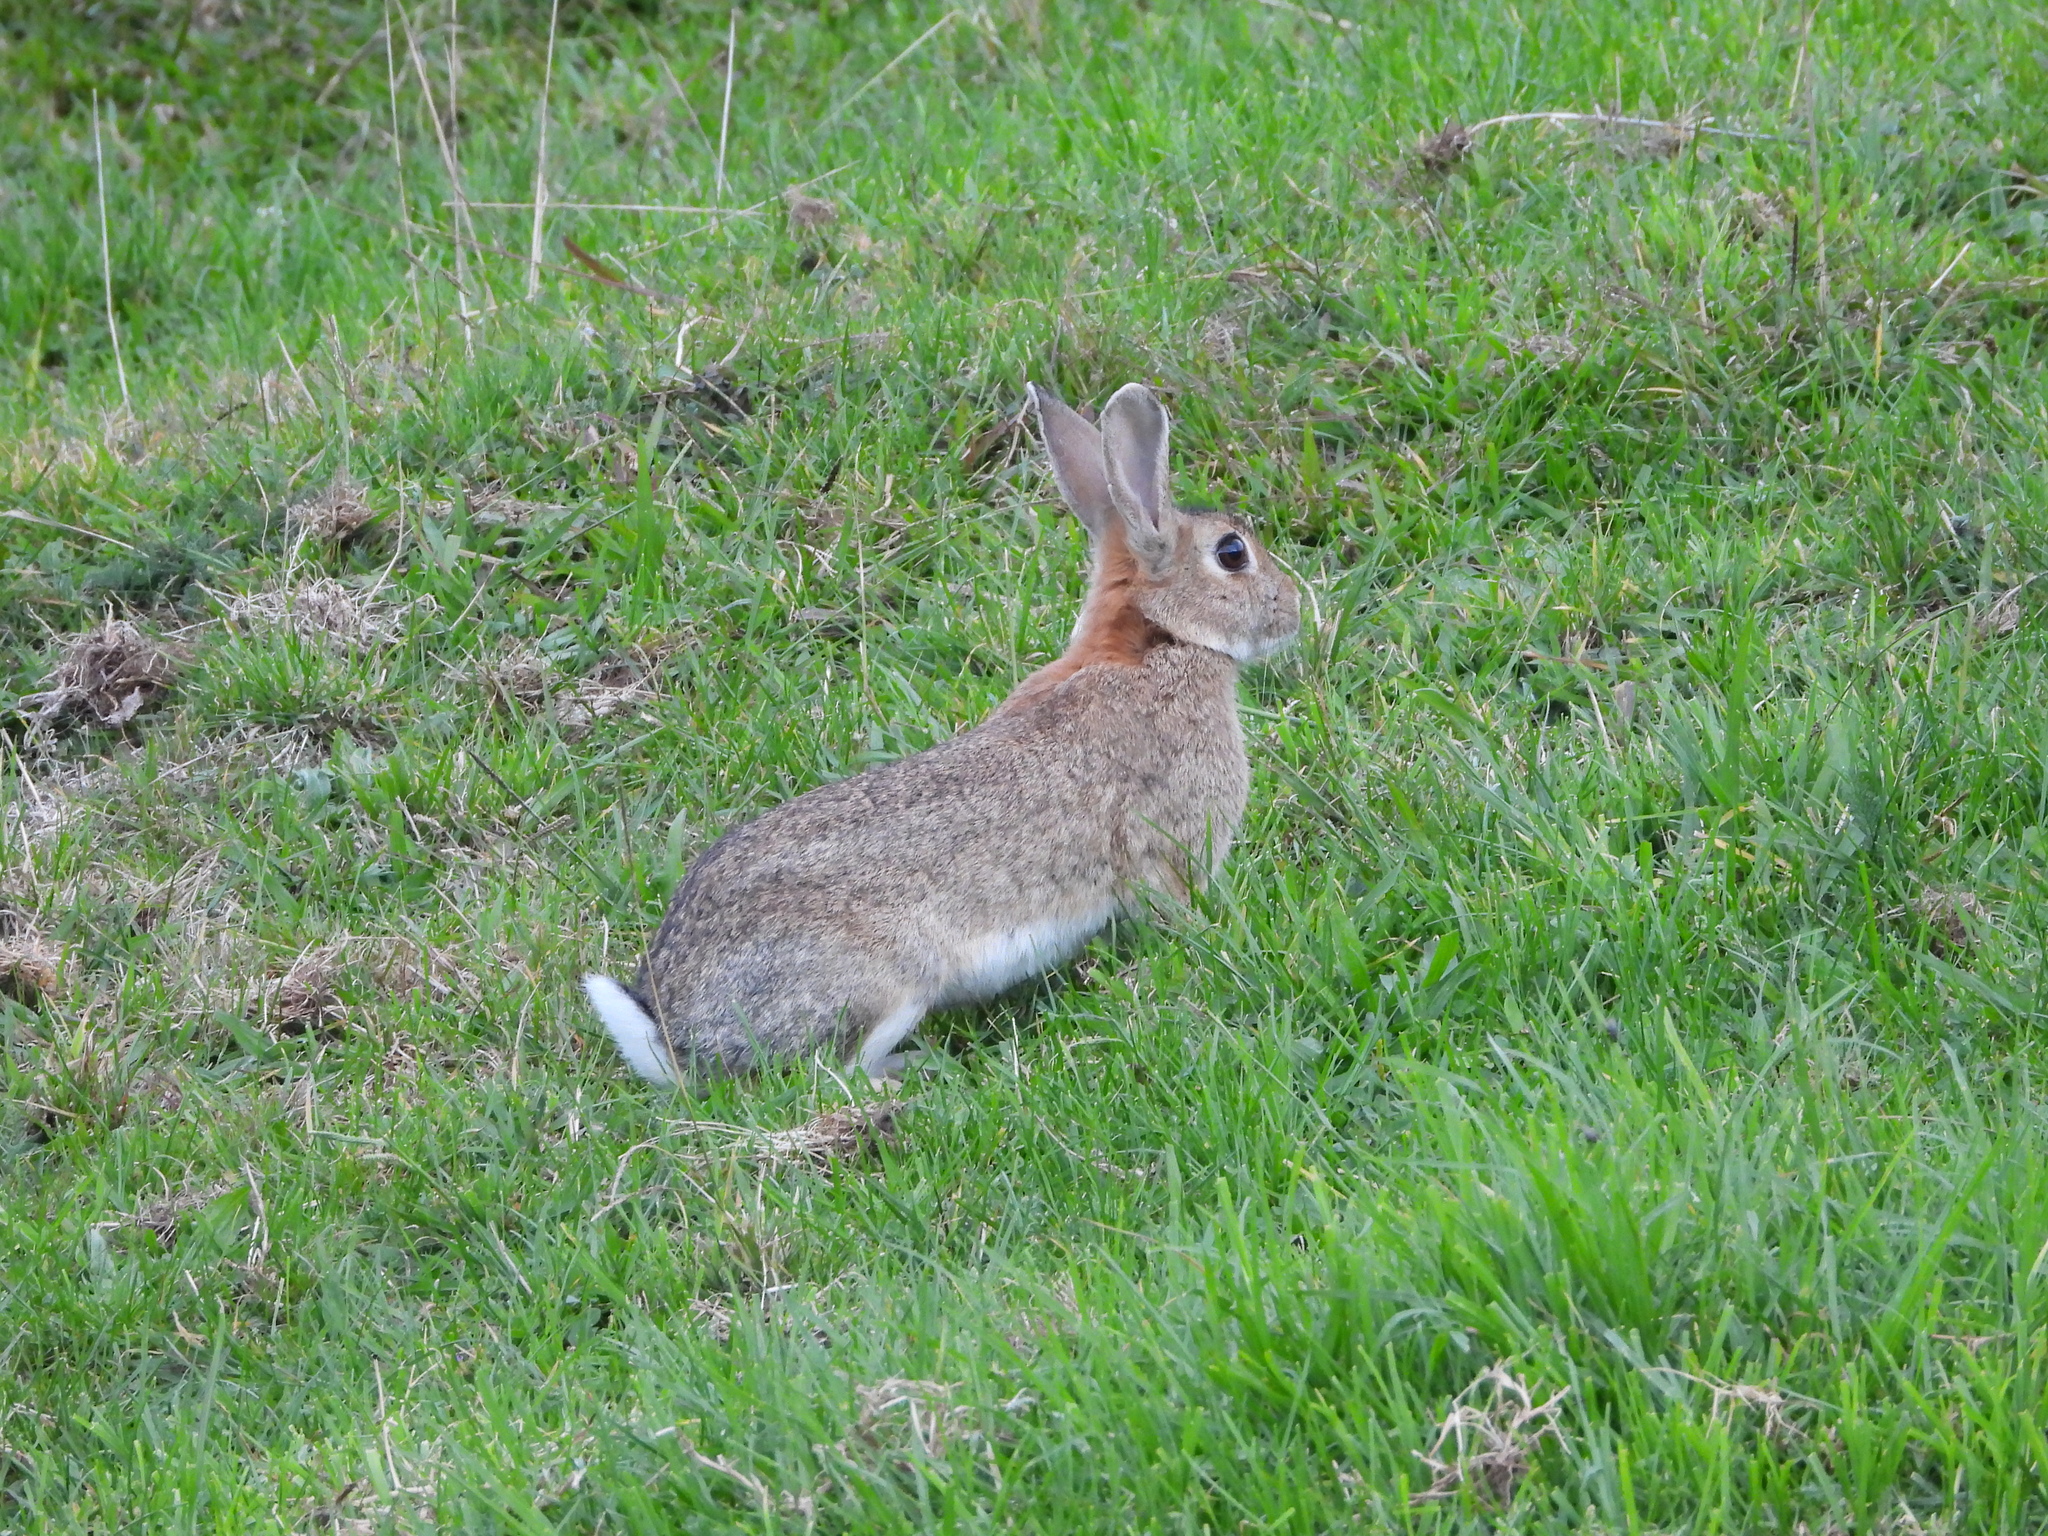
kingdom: Animalia
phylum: Chordata
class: Mammalia
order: Lagomorpha
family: Leporidae
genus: Oryctolagus
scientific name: Oryctolagus cuniculus
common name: European rabbit
